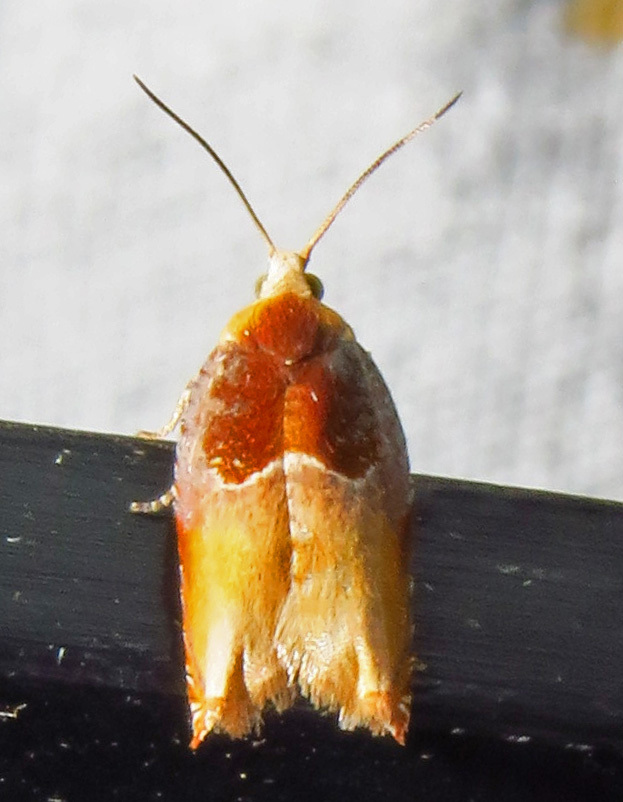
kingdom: Animalia
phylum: Arthropoda
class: Insecta
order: Lepidoptera
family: Tortricidae
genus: Ancylis
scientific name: Ancylis divisana
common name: Two-toned ancylis moth
